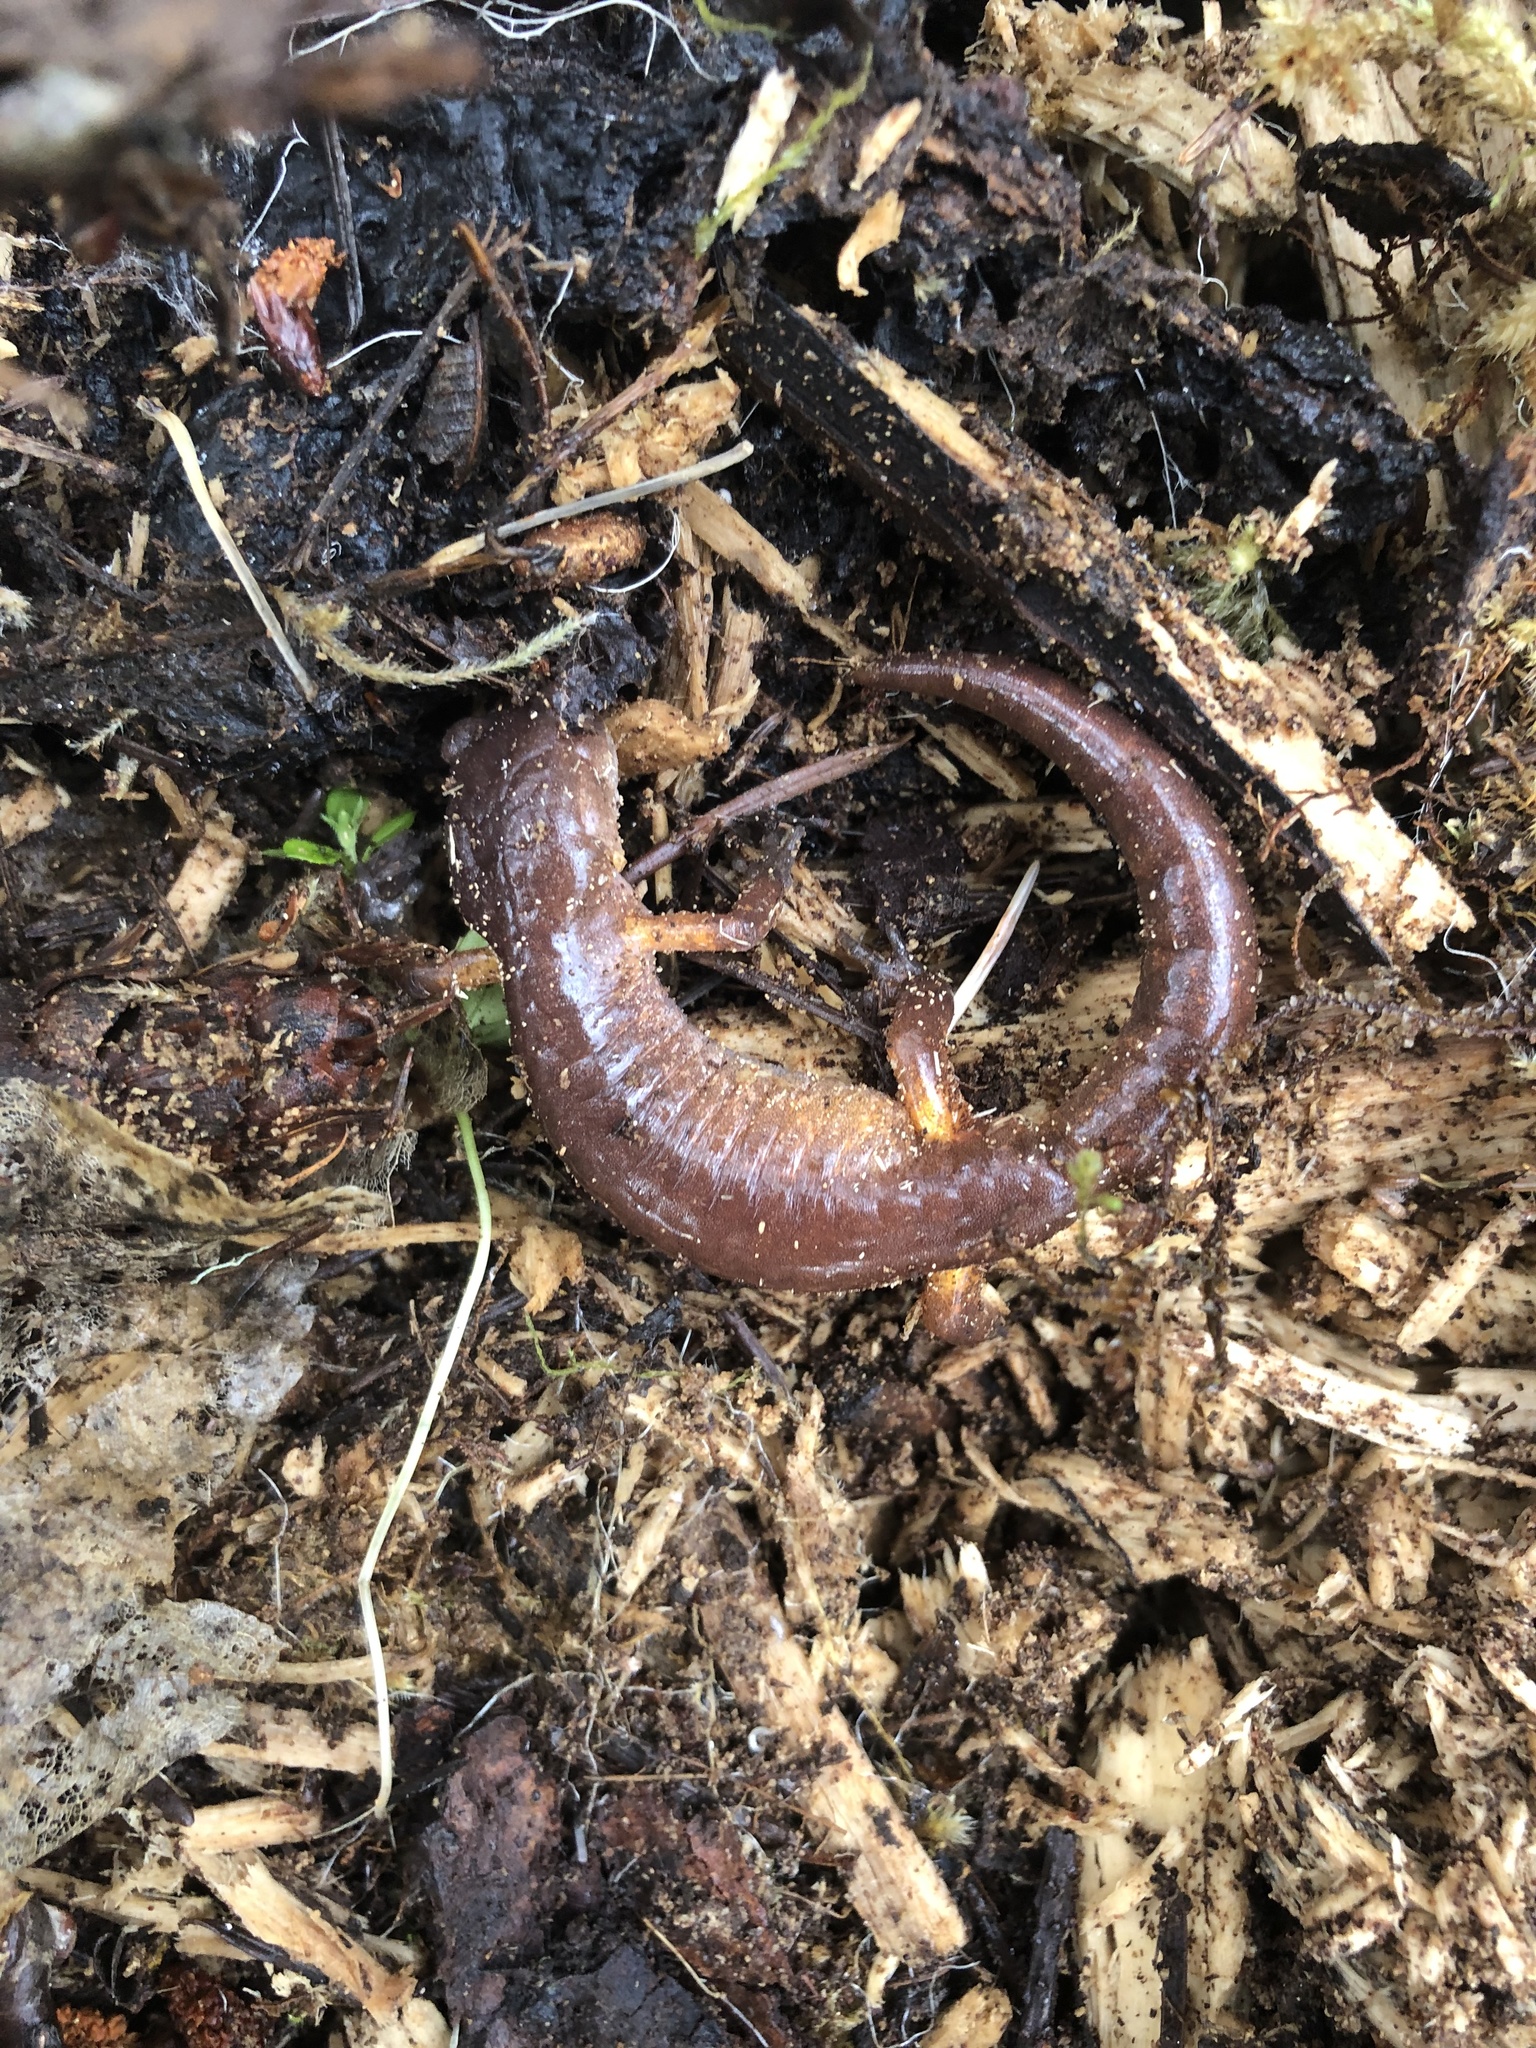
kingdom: Animalia
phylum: Chordata
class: Amphibia
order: Caudata
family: Plethodontidae
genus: Ensatina
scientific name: Ensatina eschscholtzii
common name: Ensatina
